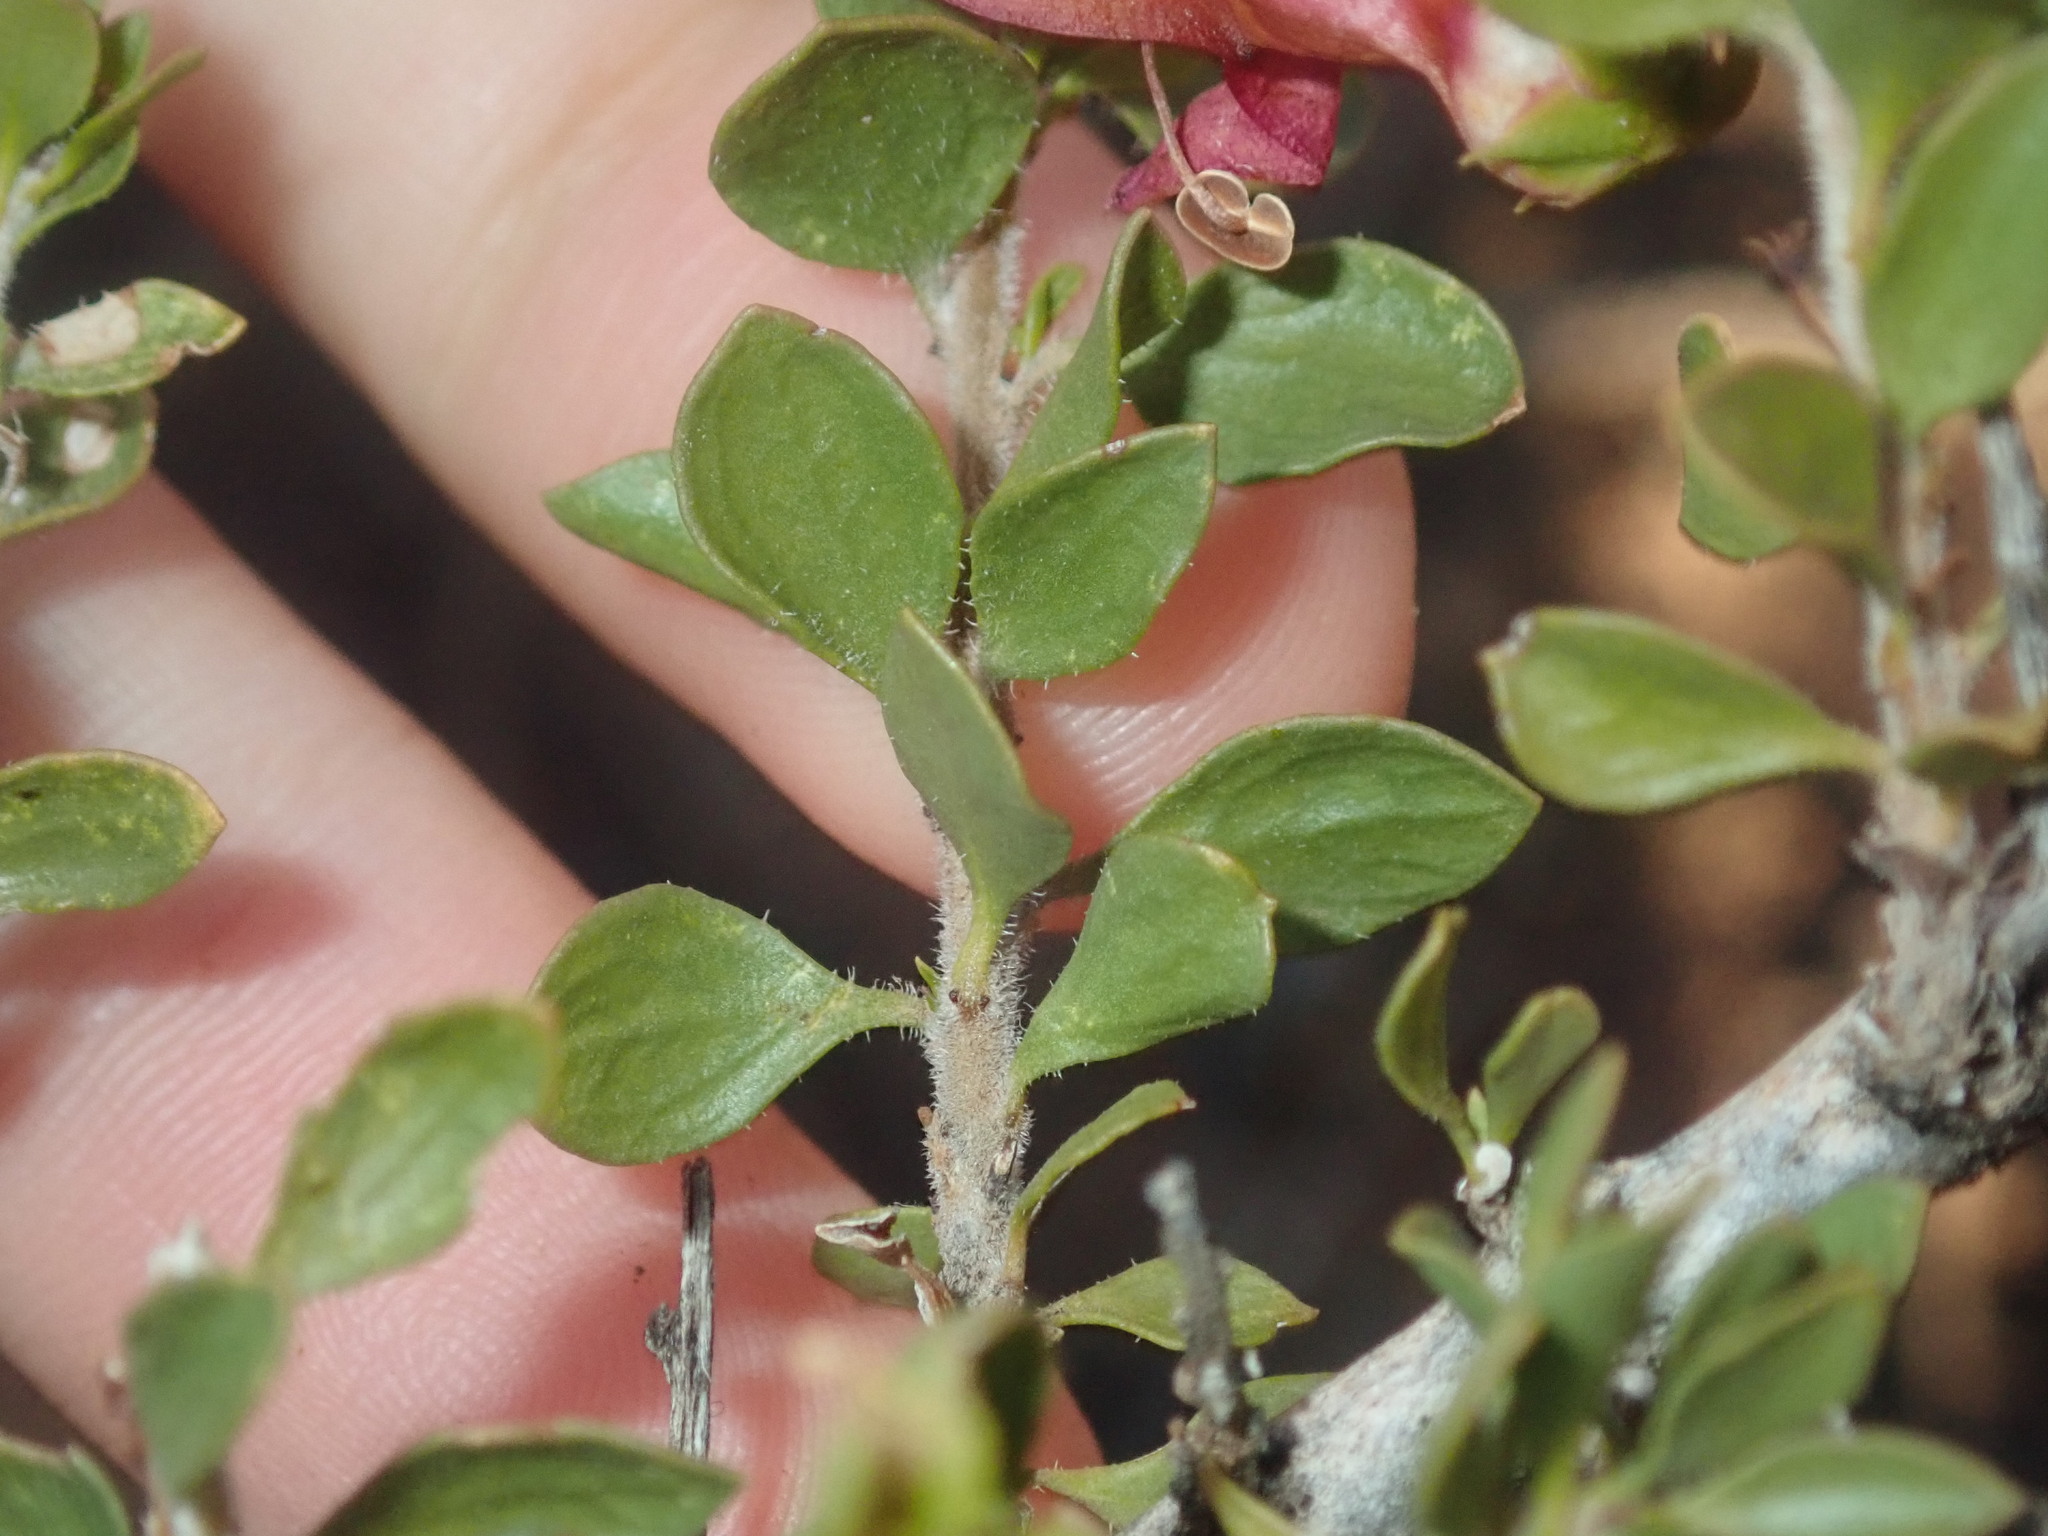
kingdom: Plantae
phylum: Tracheophyta
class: Magnoliopsida
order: Lamiales
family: Scrophulariaceae
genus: Eremophila
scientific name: Eremophila maculata
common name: Fuchsiabush
